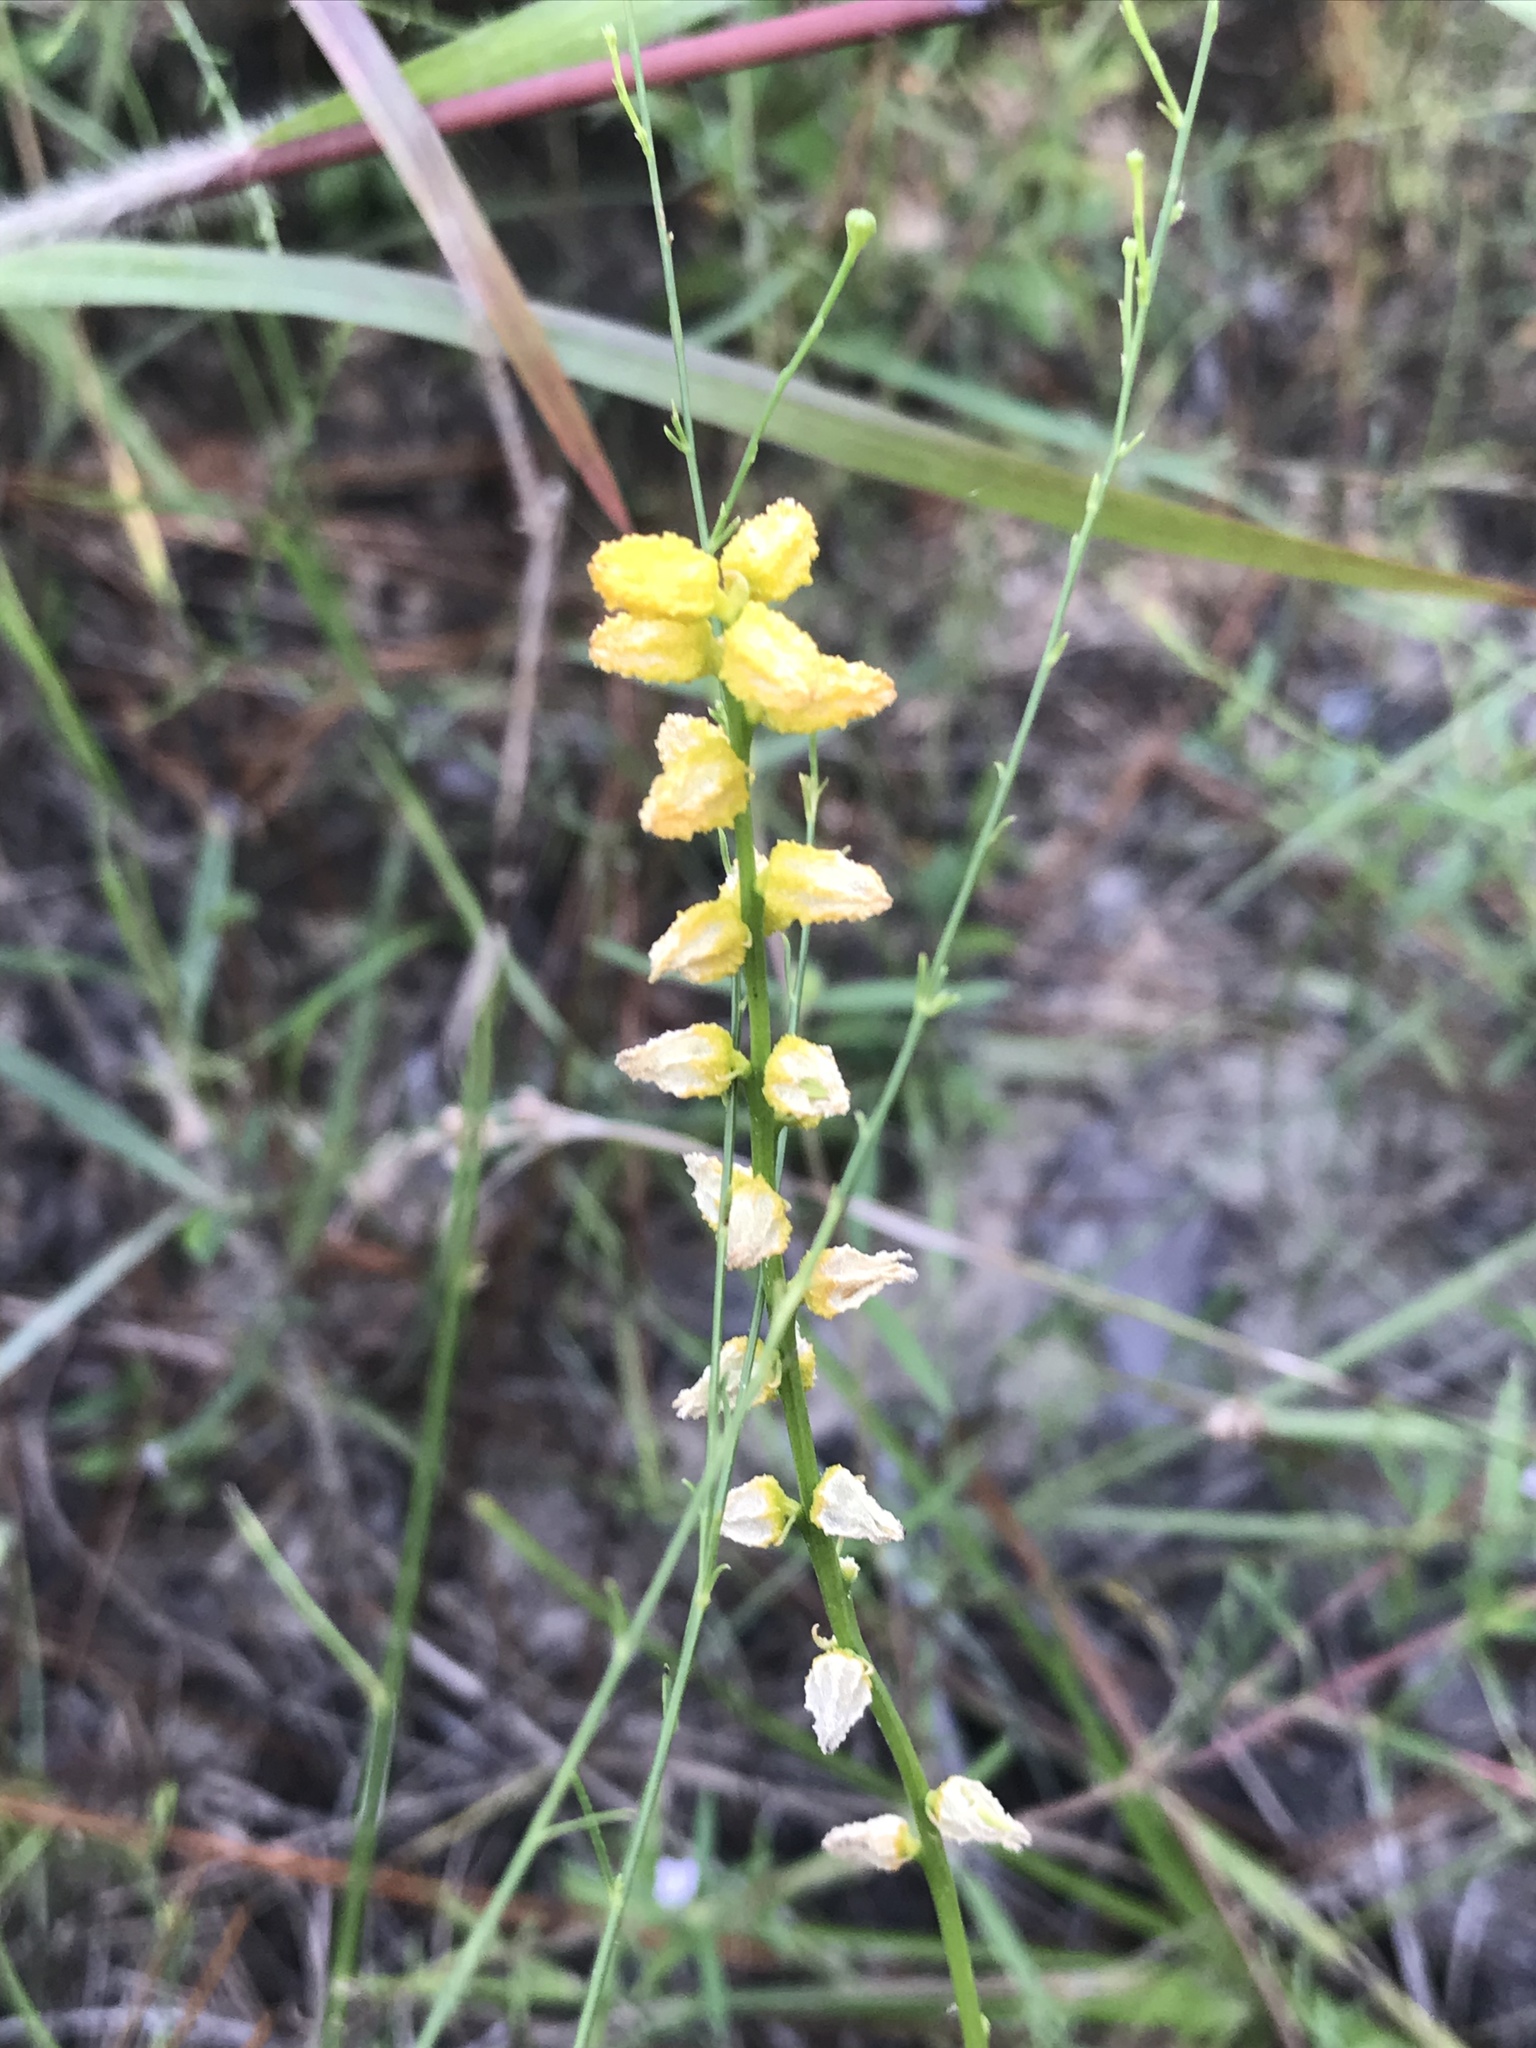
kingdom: Plantae
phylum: Tracheophyta
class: Liliopsida
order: Dioscoreales
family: Nartheciaceae
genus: Aletris
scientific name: Aletris aurea
